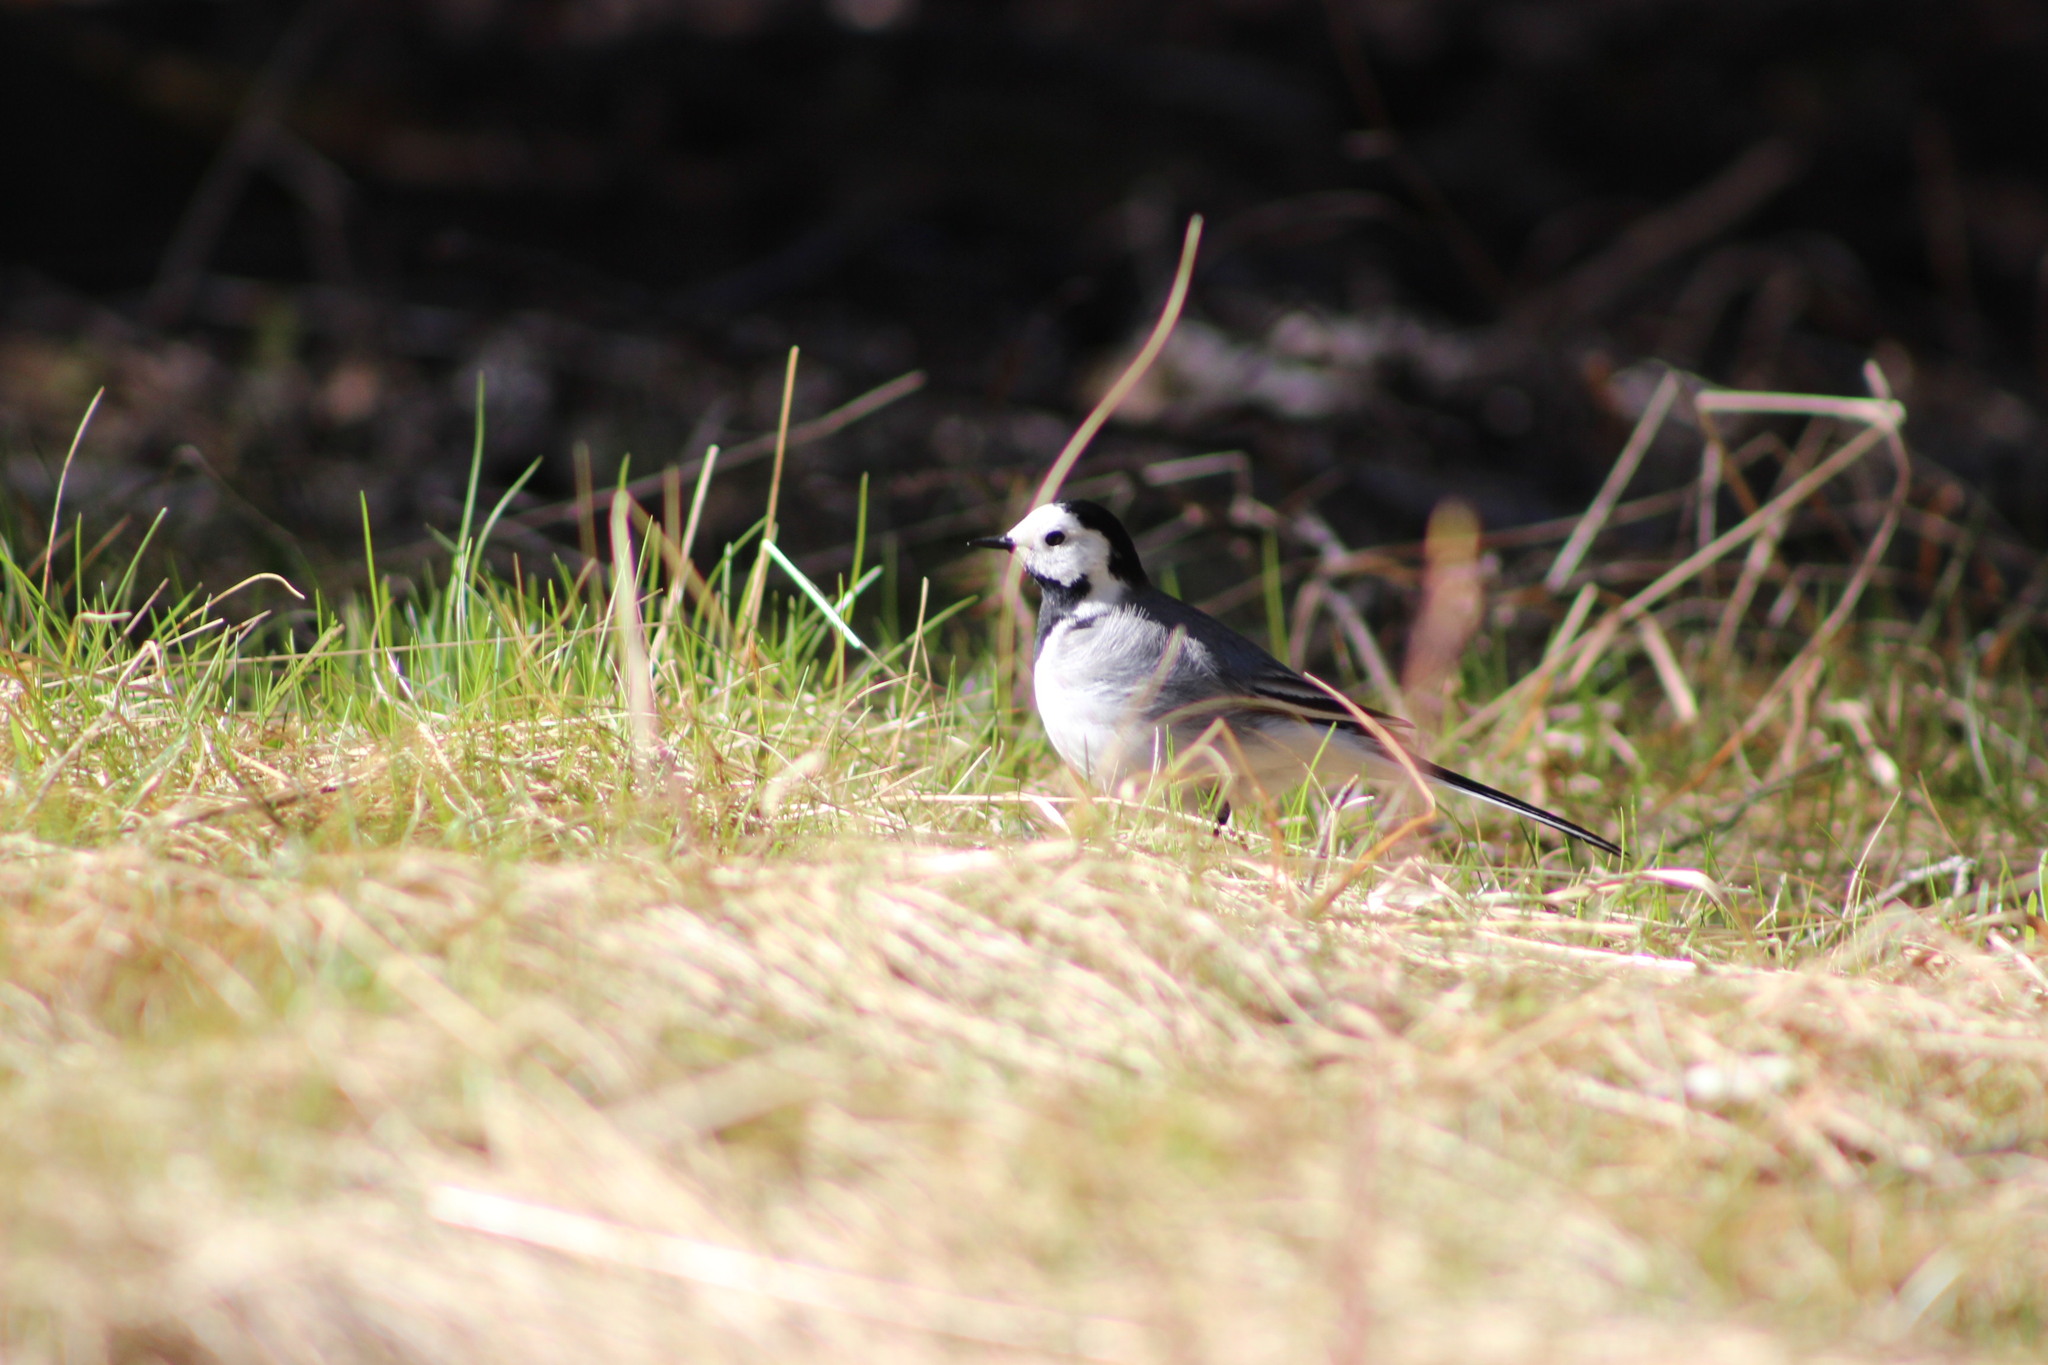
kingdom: Animalia
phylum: Chordata
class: Aves
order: Passeriformes
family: Motacillidae
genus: Motacilla
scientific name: Motacilla alba
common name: White wagtail
